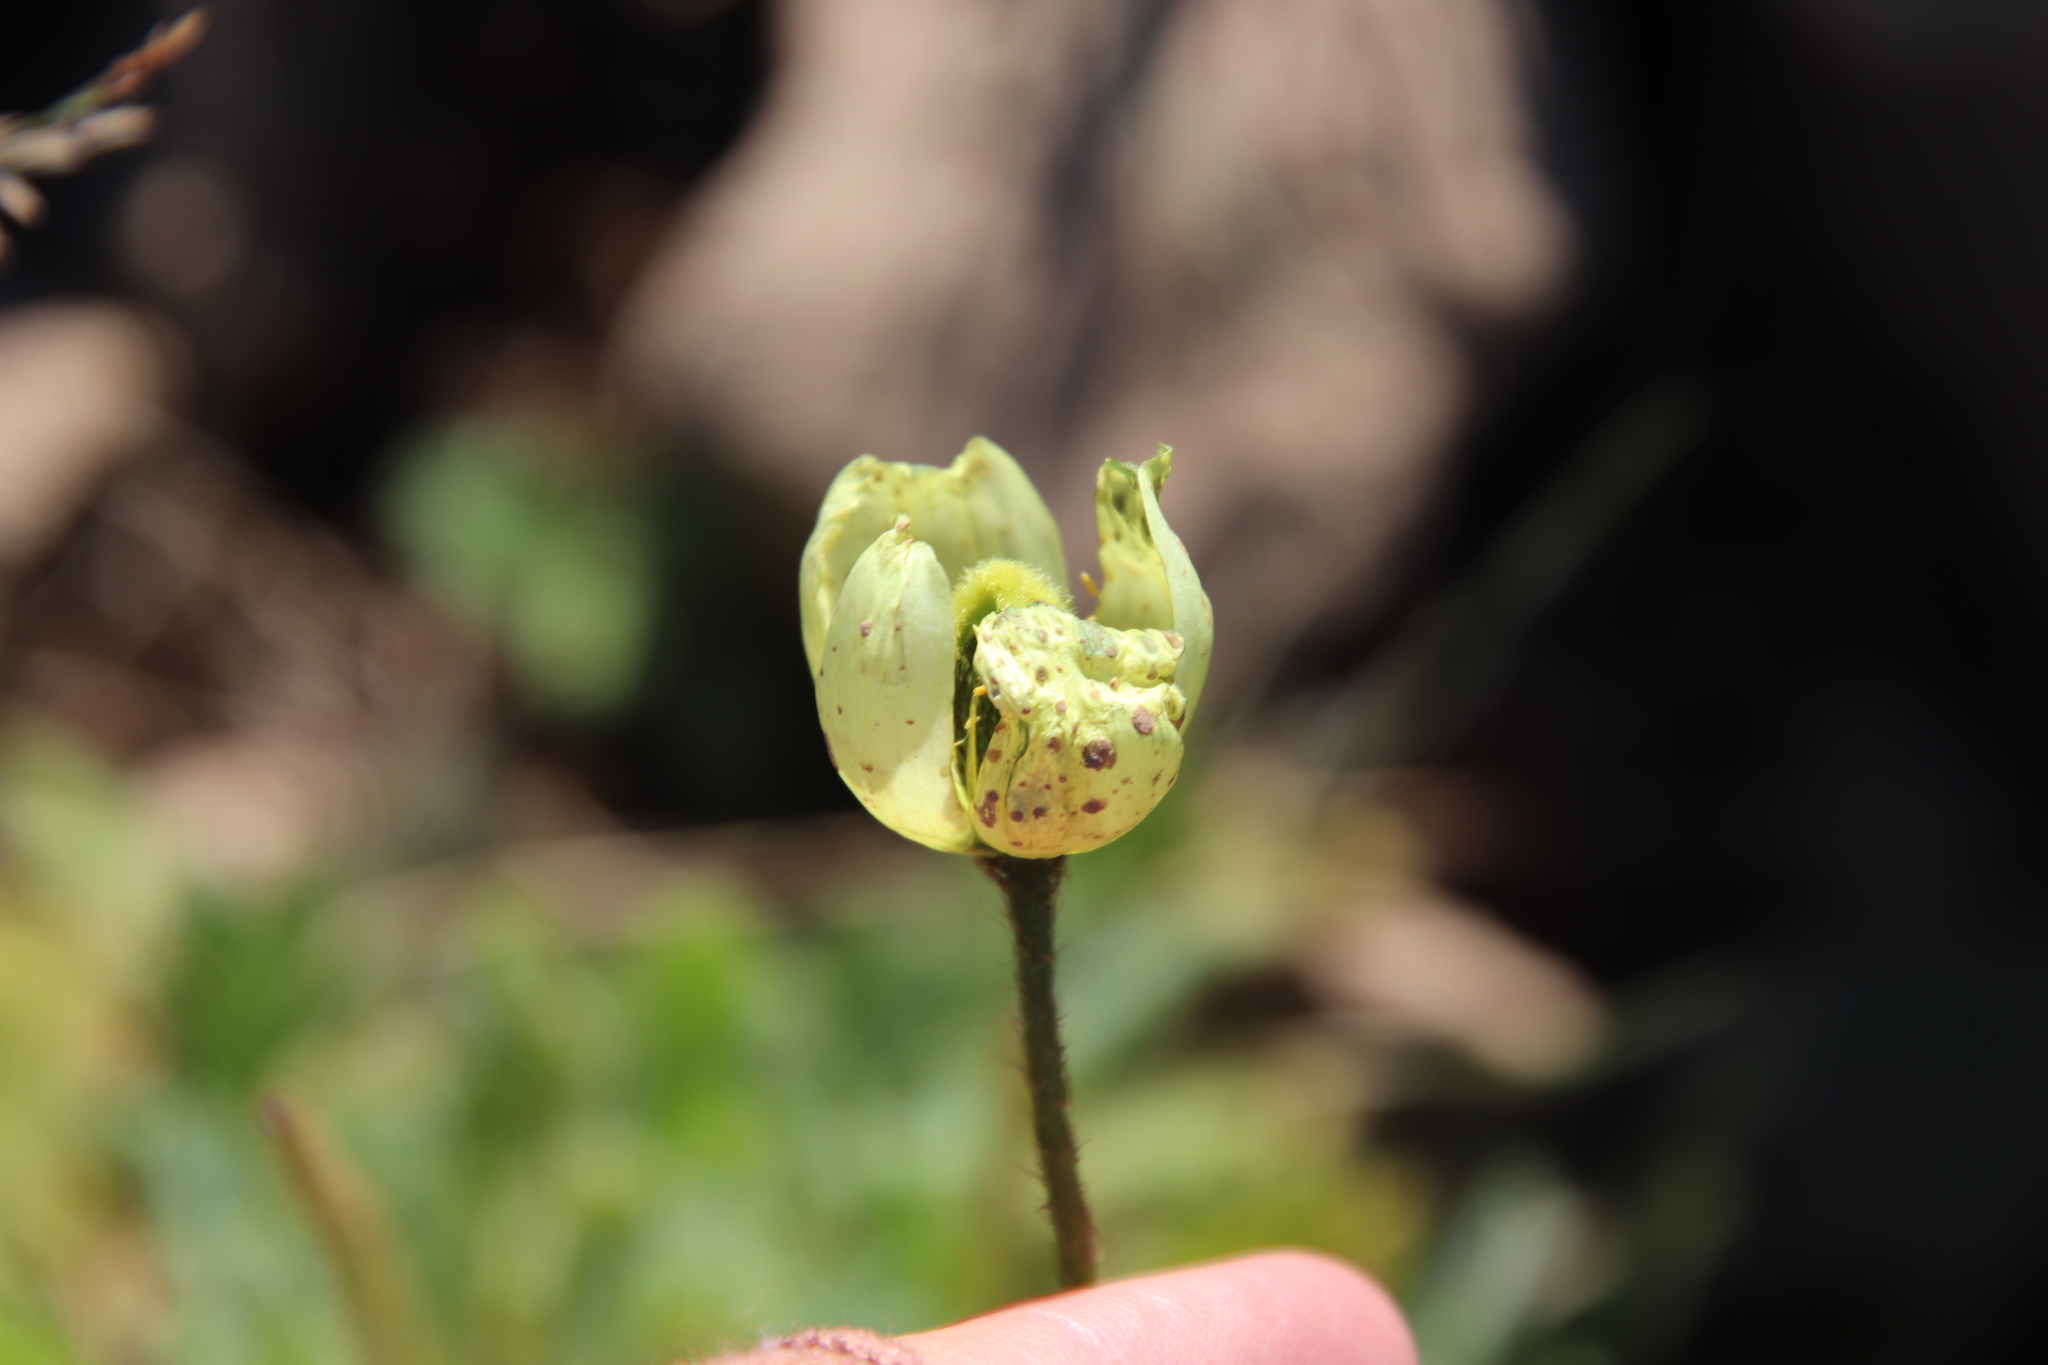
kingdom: Plantae
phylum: Tracheophyta
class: Magnoliopsida
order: Ranunculales
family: Papaveraceae
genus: Papaver
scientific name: Papaver radicatum
